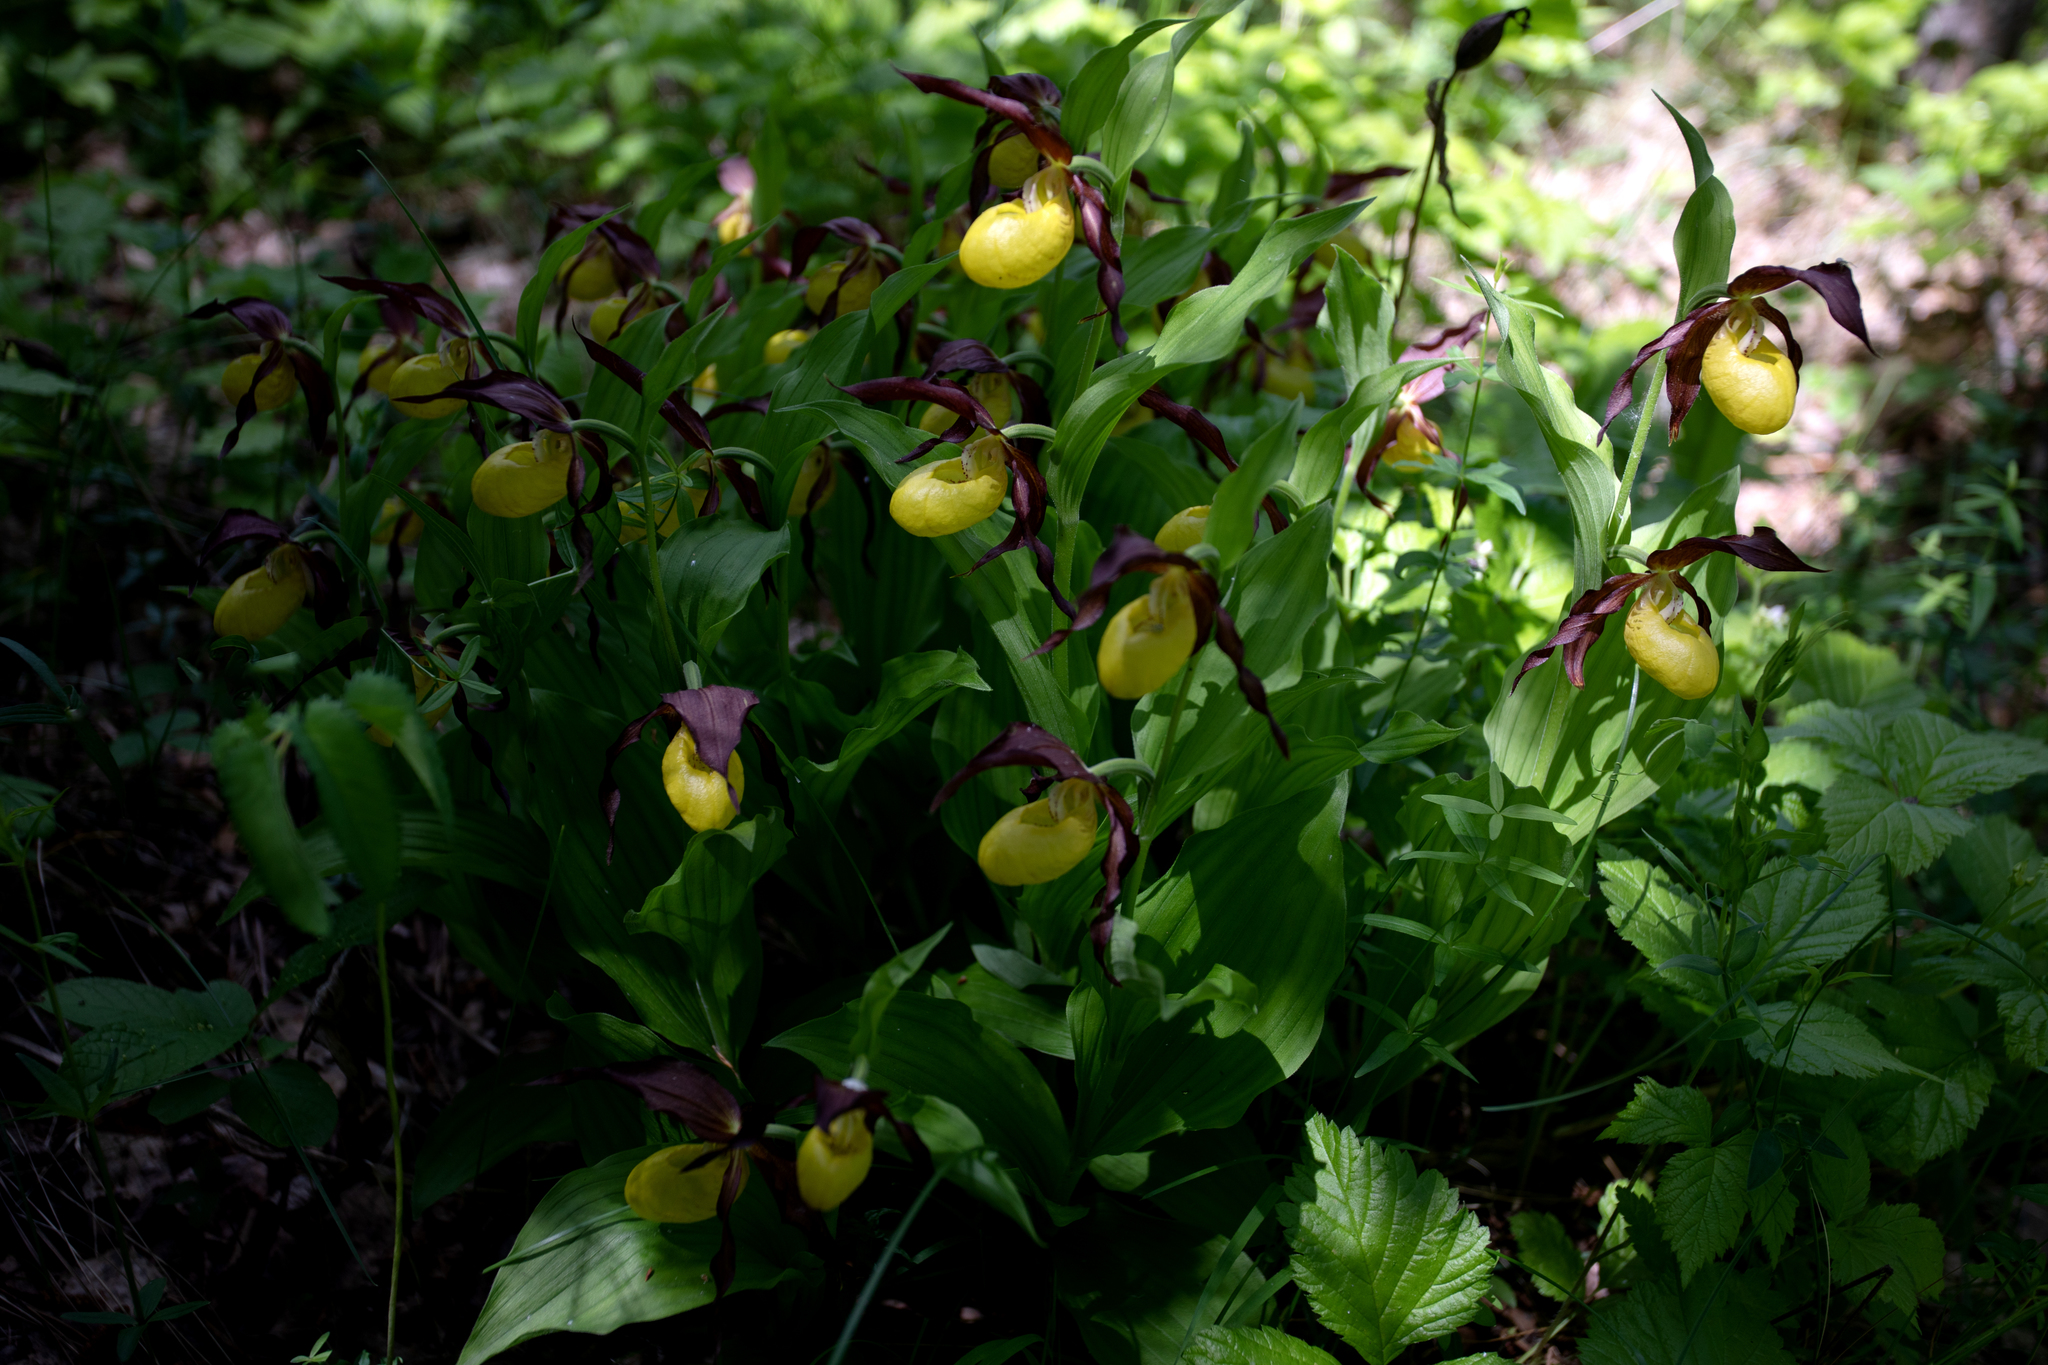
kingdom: Plantae
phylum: Tracheophyta
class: Liliopsida
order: Asparagales
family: Orchidaceae
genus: Cypripedium
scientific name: Cypripedium calceolus
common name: Lady's-slipper
